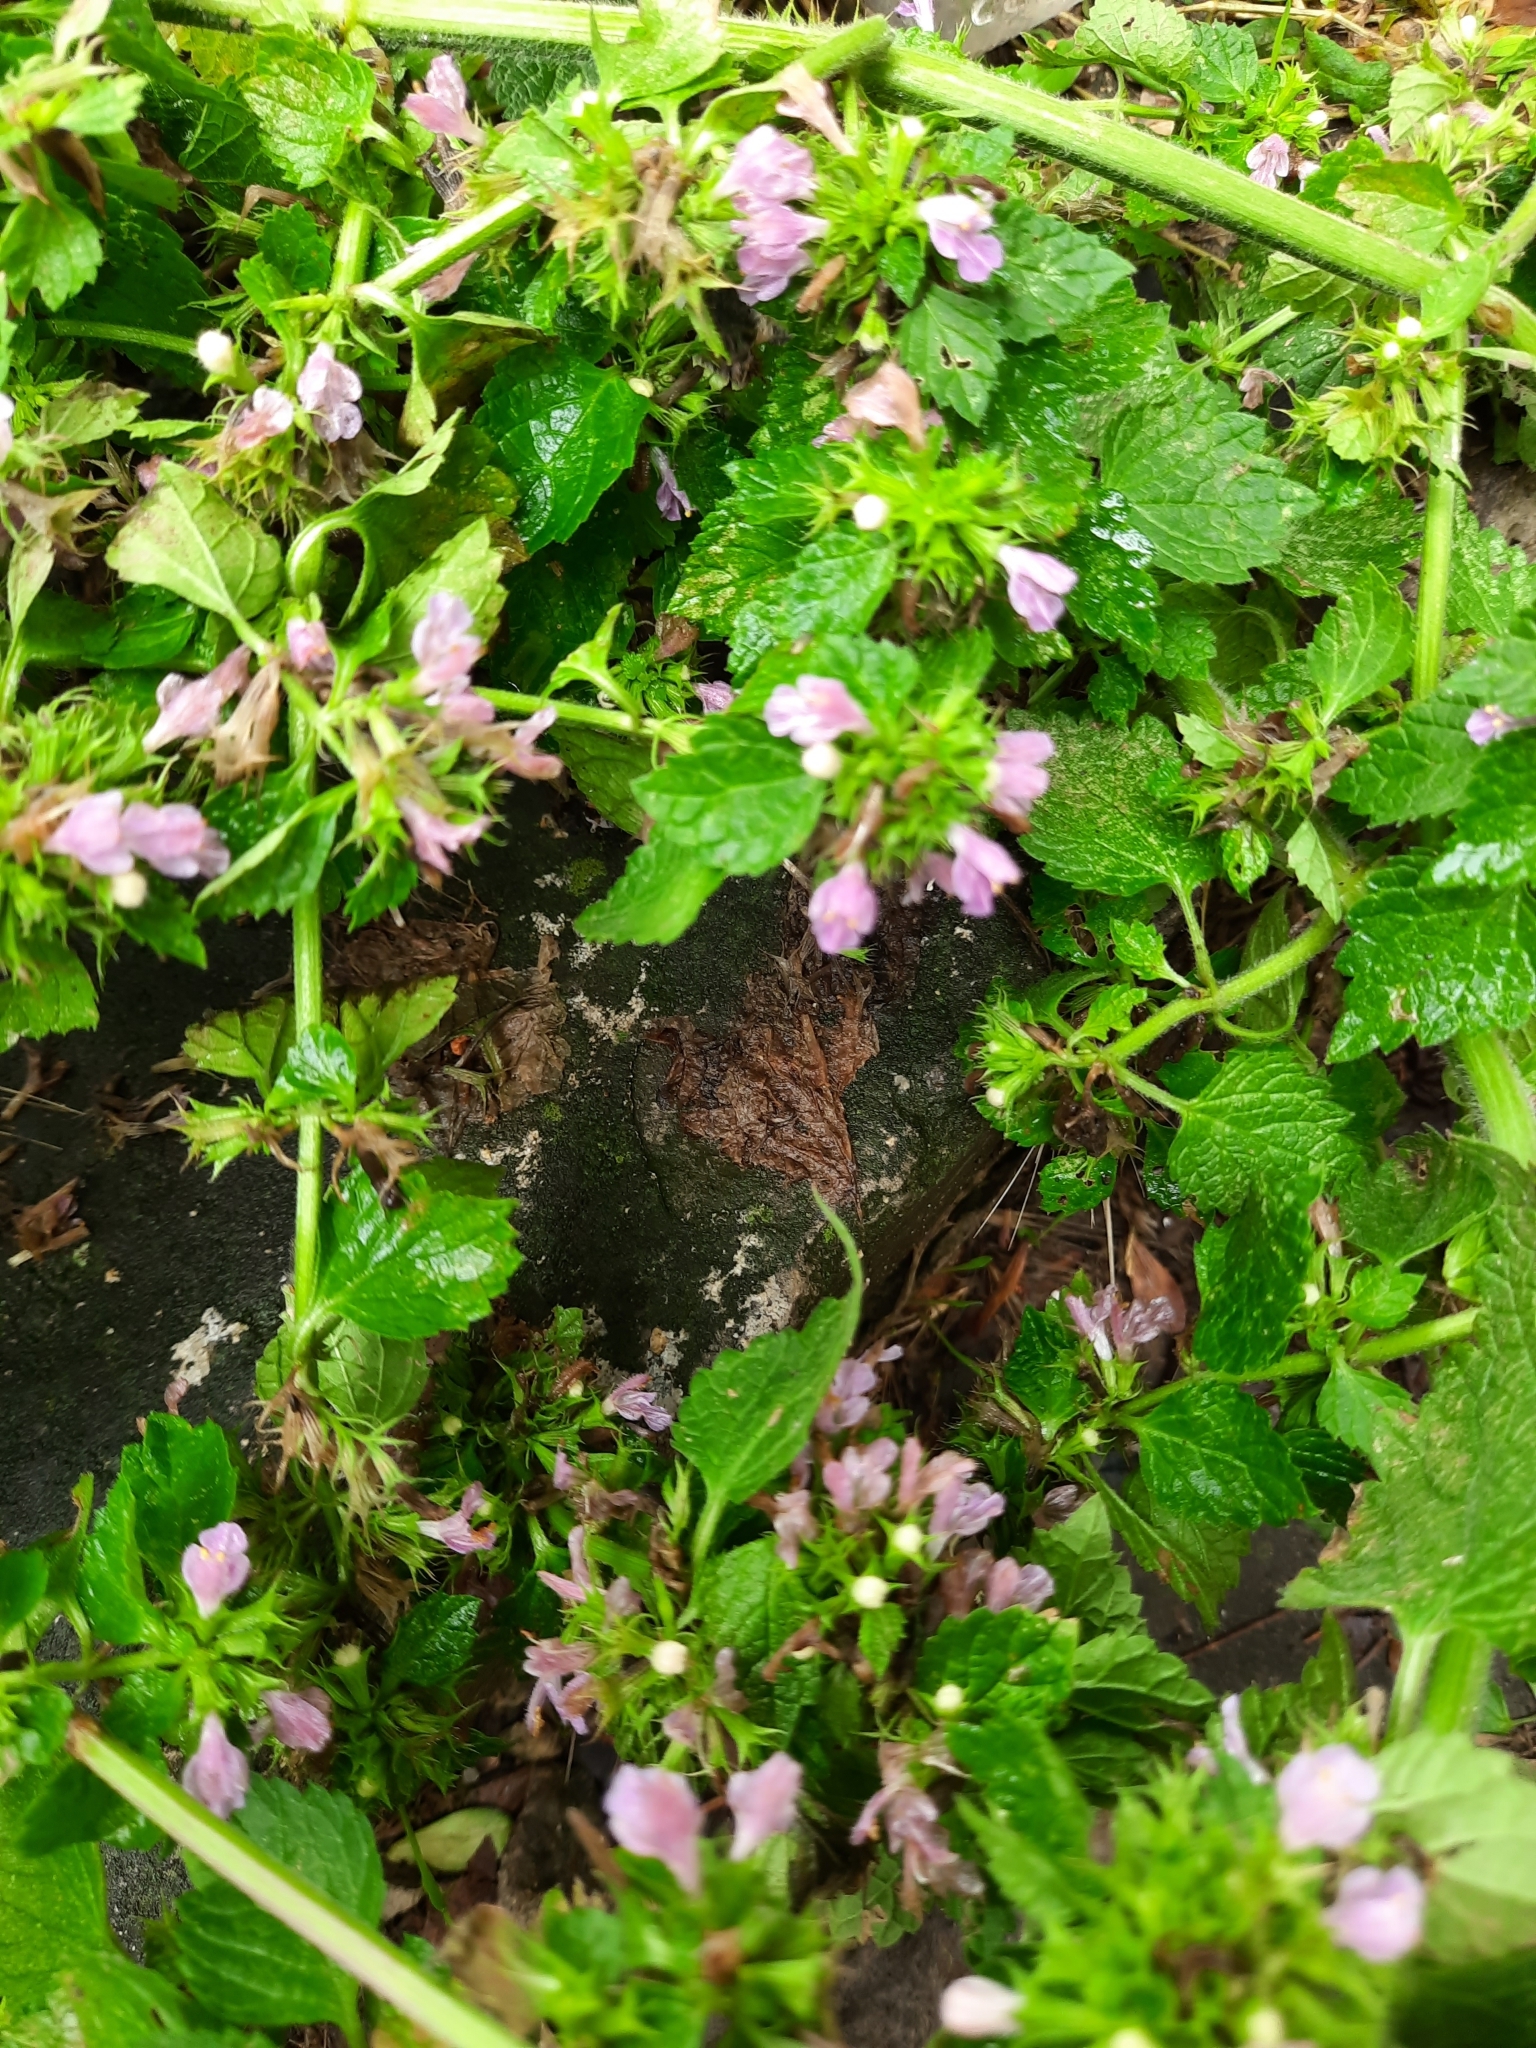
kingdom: Plantae
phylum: Tracheophyta
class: Magnoliopsida
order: Lamiales
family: Lamiaceae
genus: Ballota
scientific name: Ballota nigra
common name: Black horehound
